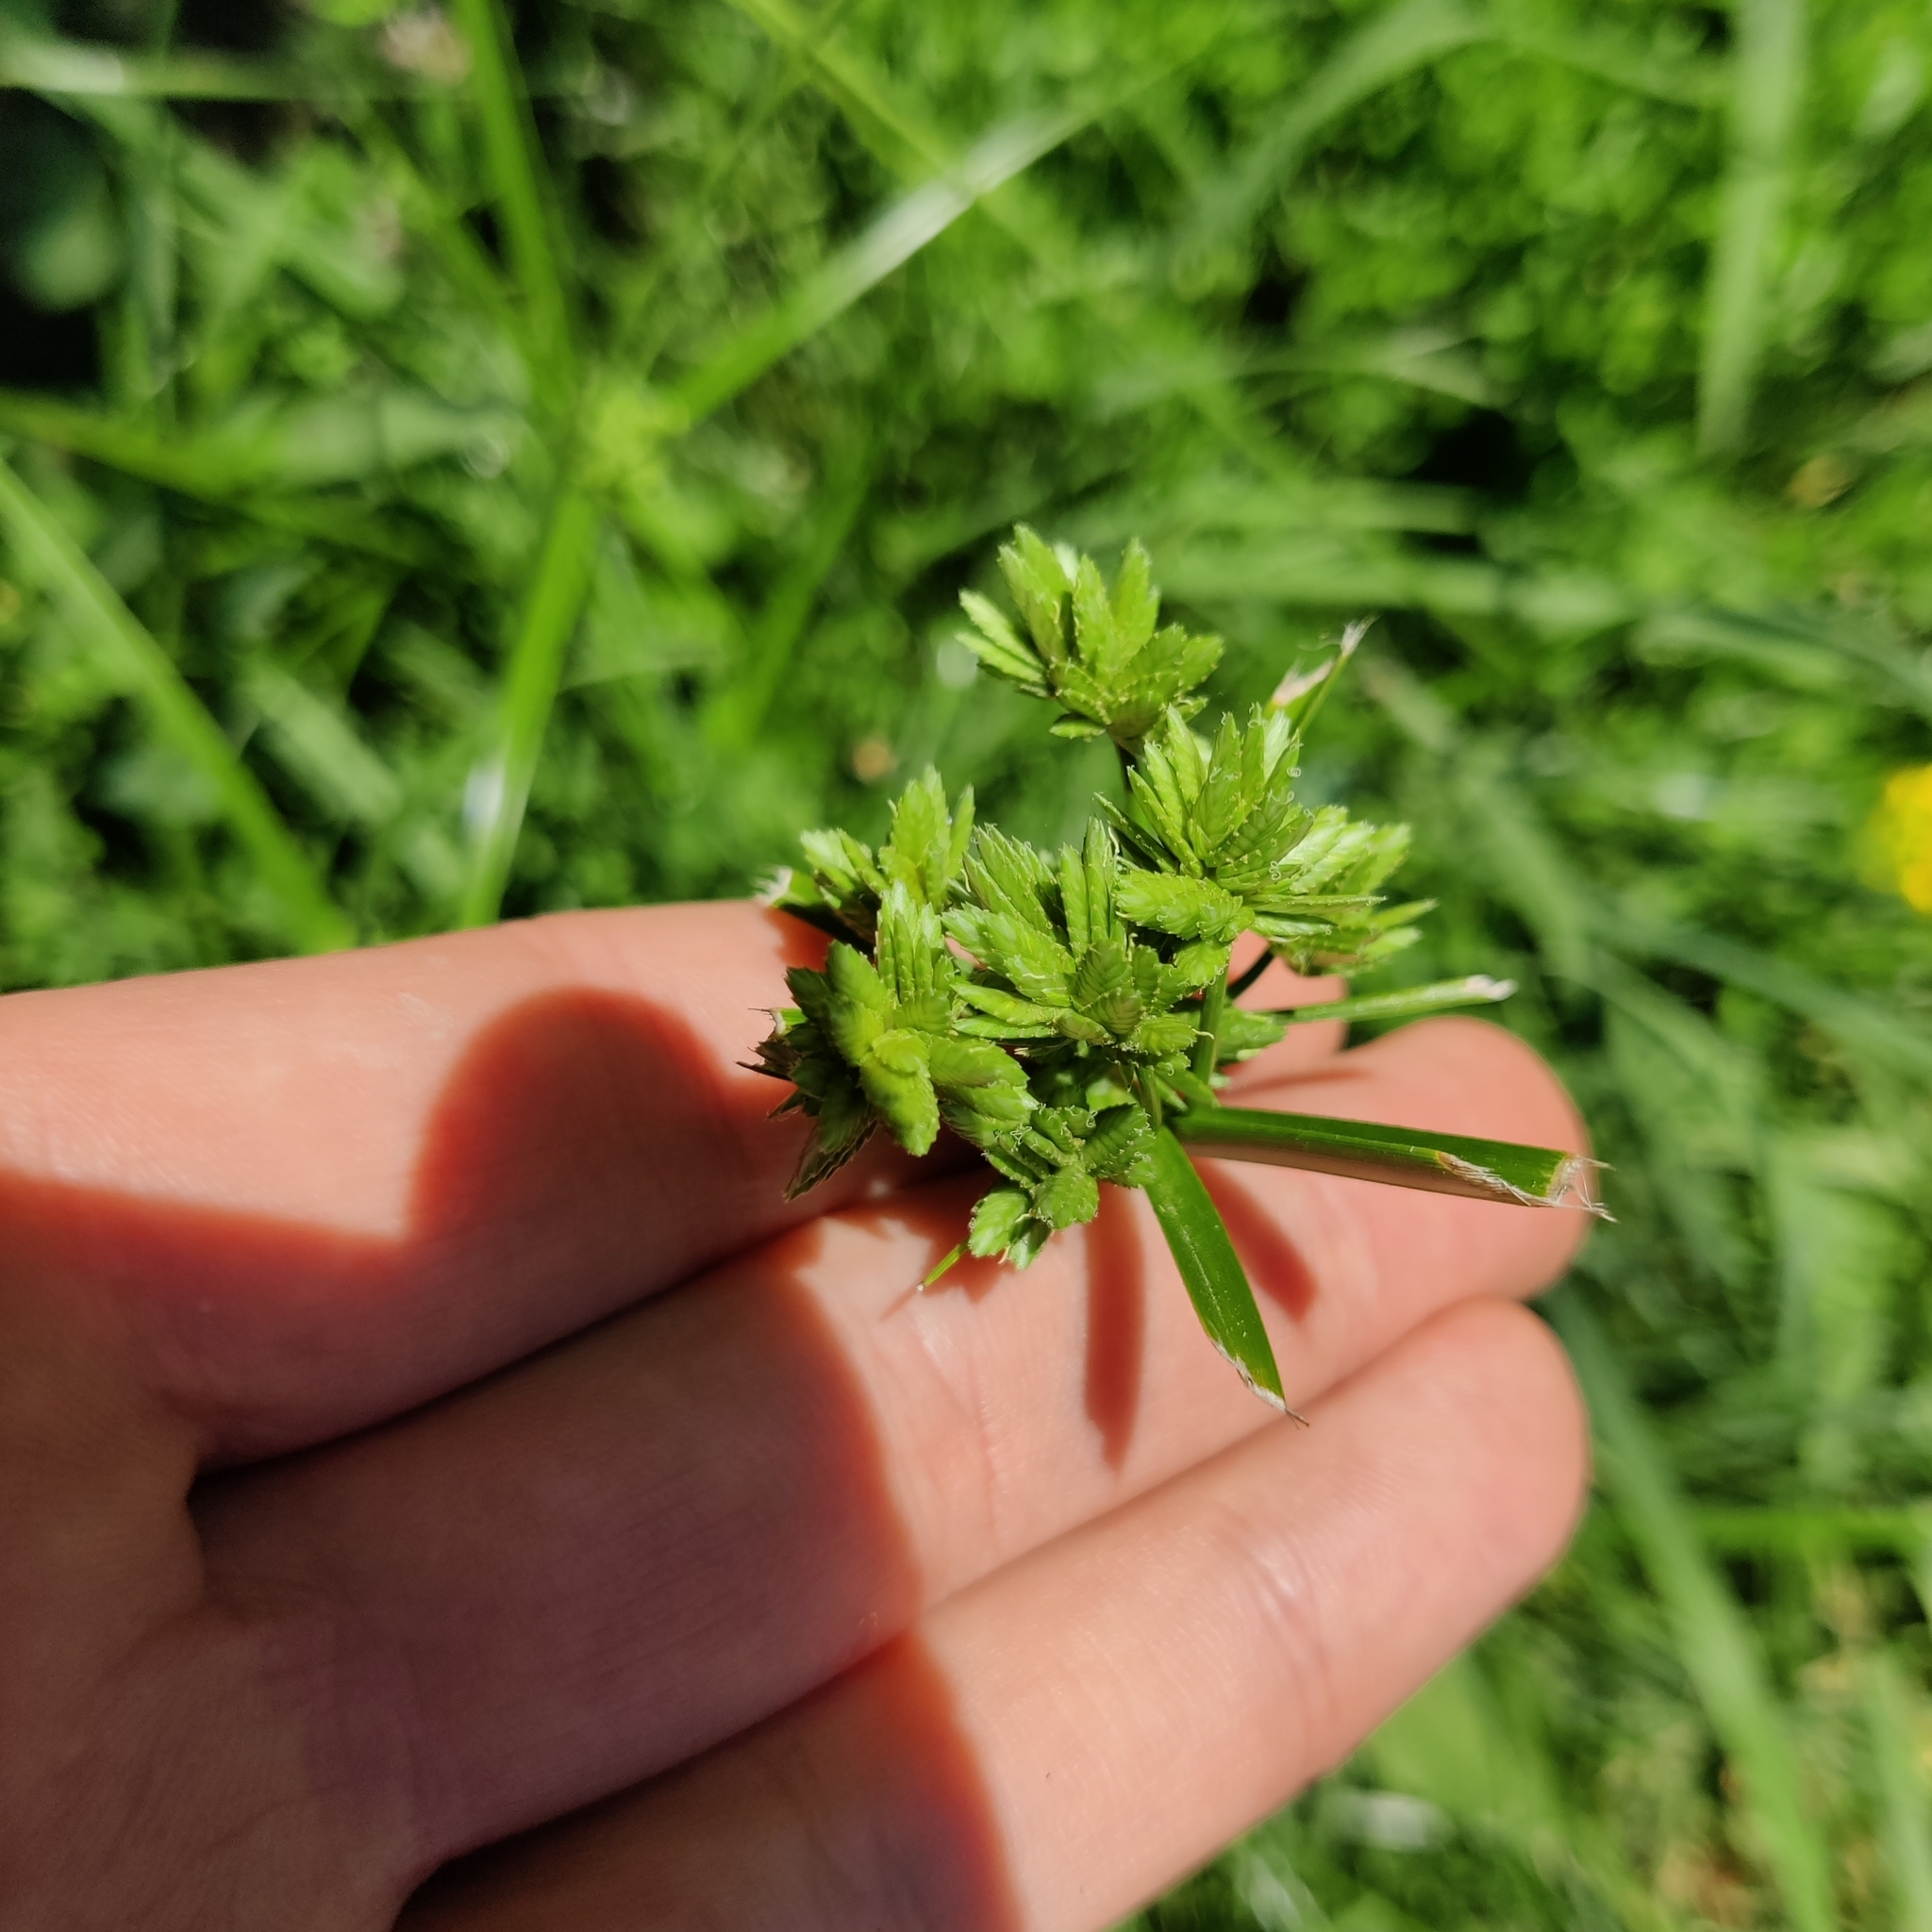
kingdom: Plantae
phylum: Tracheophyta
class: Liliopsida
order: Poales
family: Cyperaceae
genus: Cyperus
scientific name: Cyperus eragrostis
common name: Tall flatsedge
